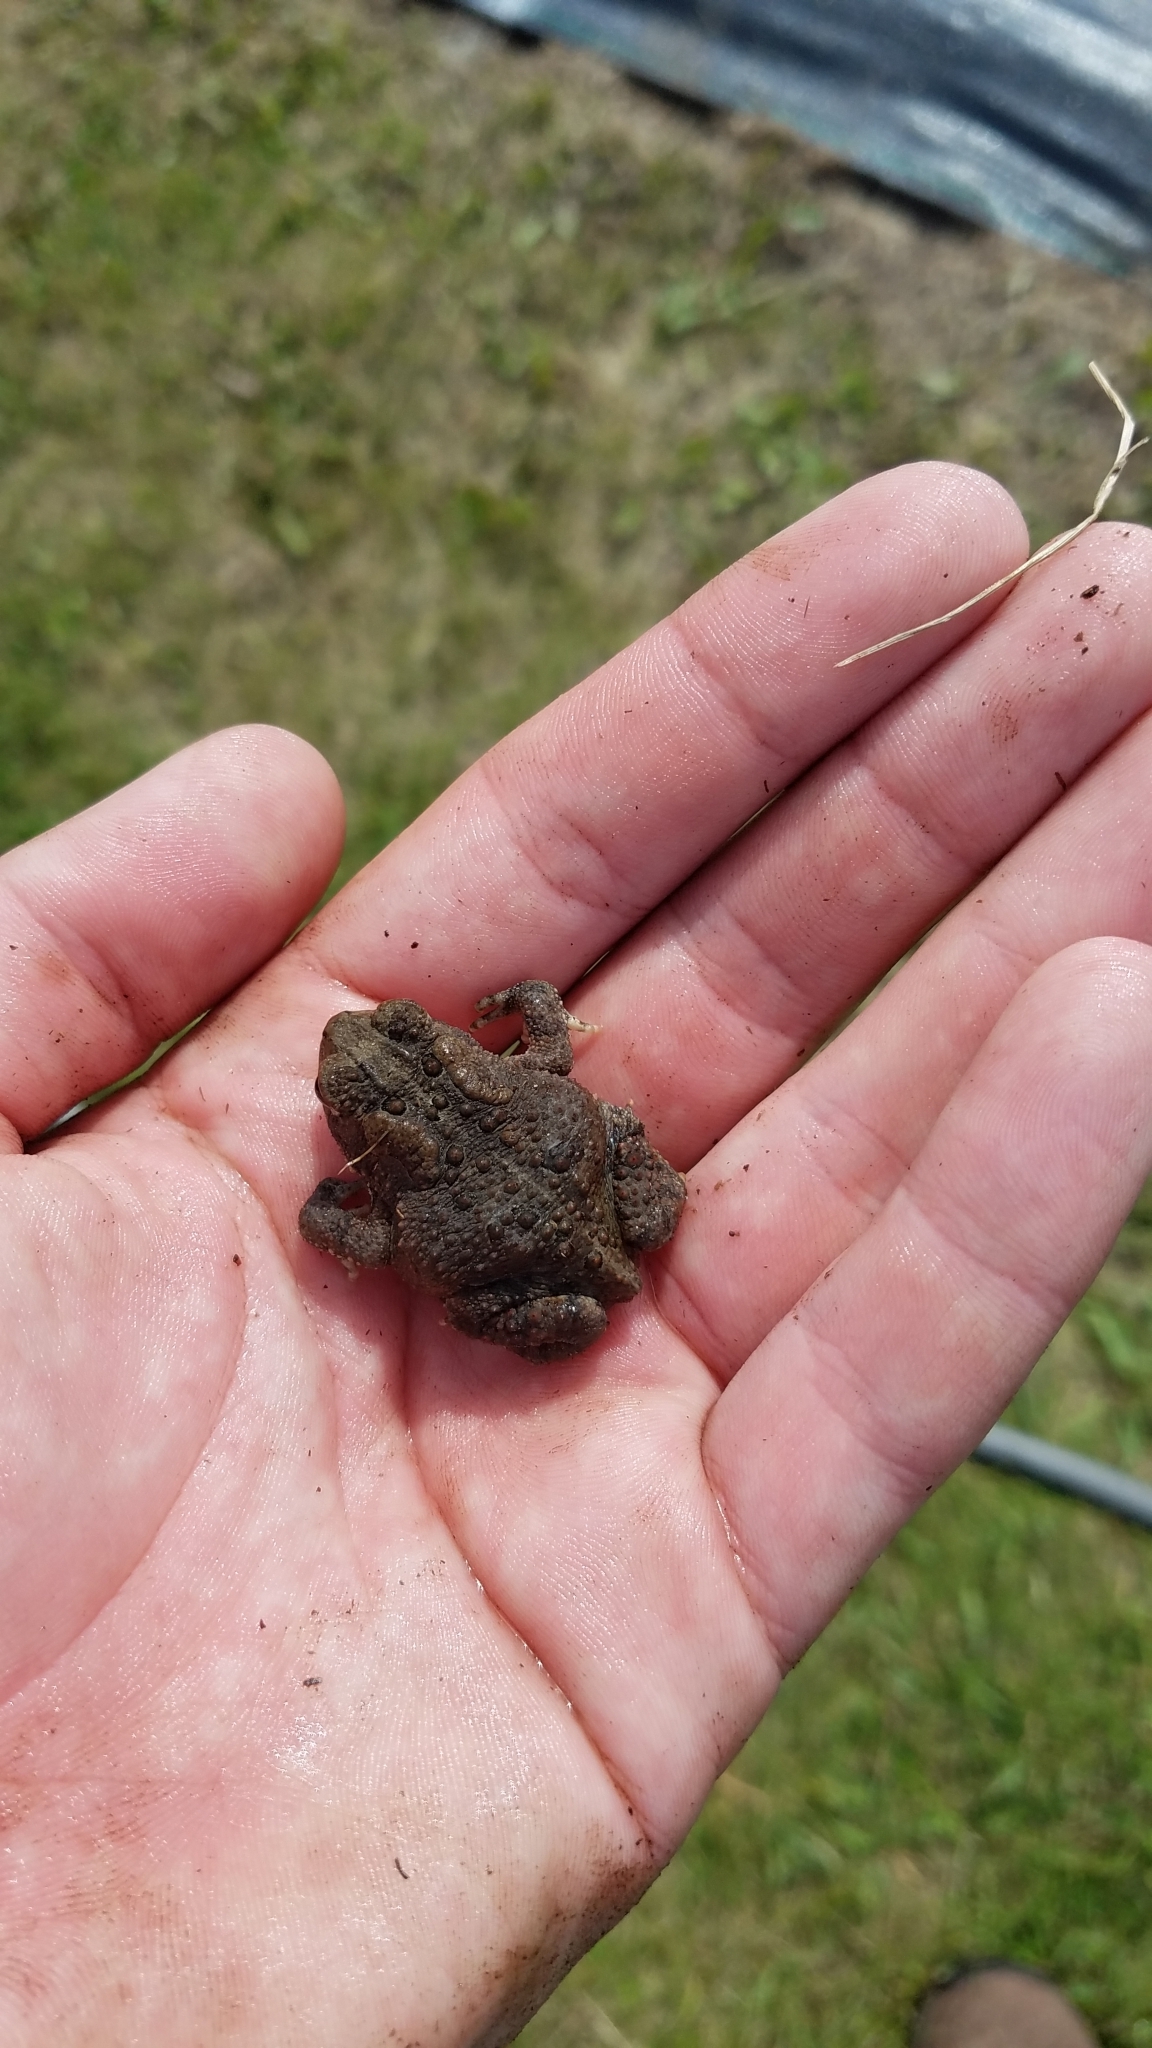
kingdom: Animalia
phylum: Chordata
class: Amphibia
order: Anura
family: Bufonidae
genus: Anaxyrus
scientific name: Anaxyrus americanus
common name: American toad
